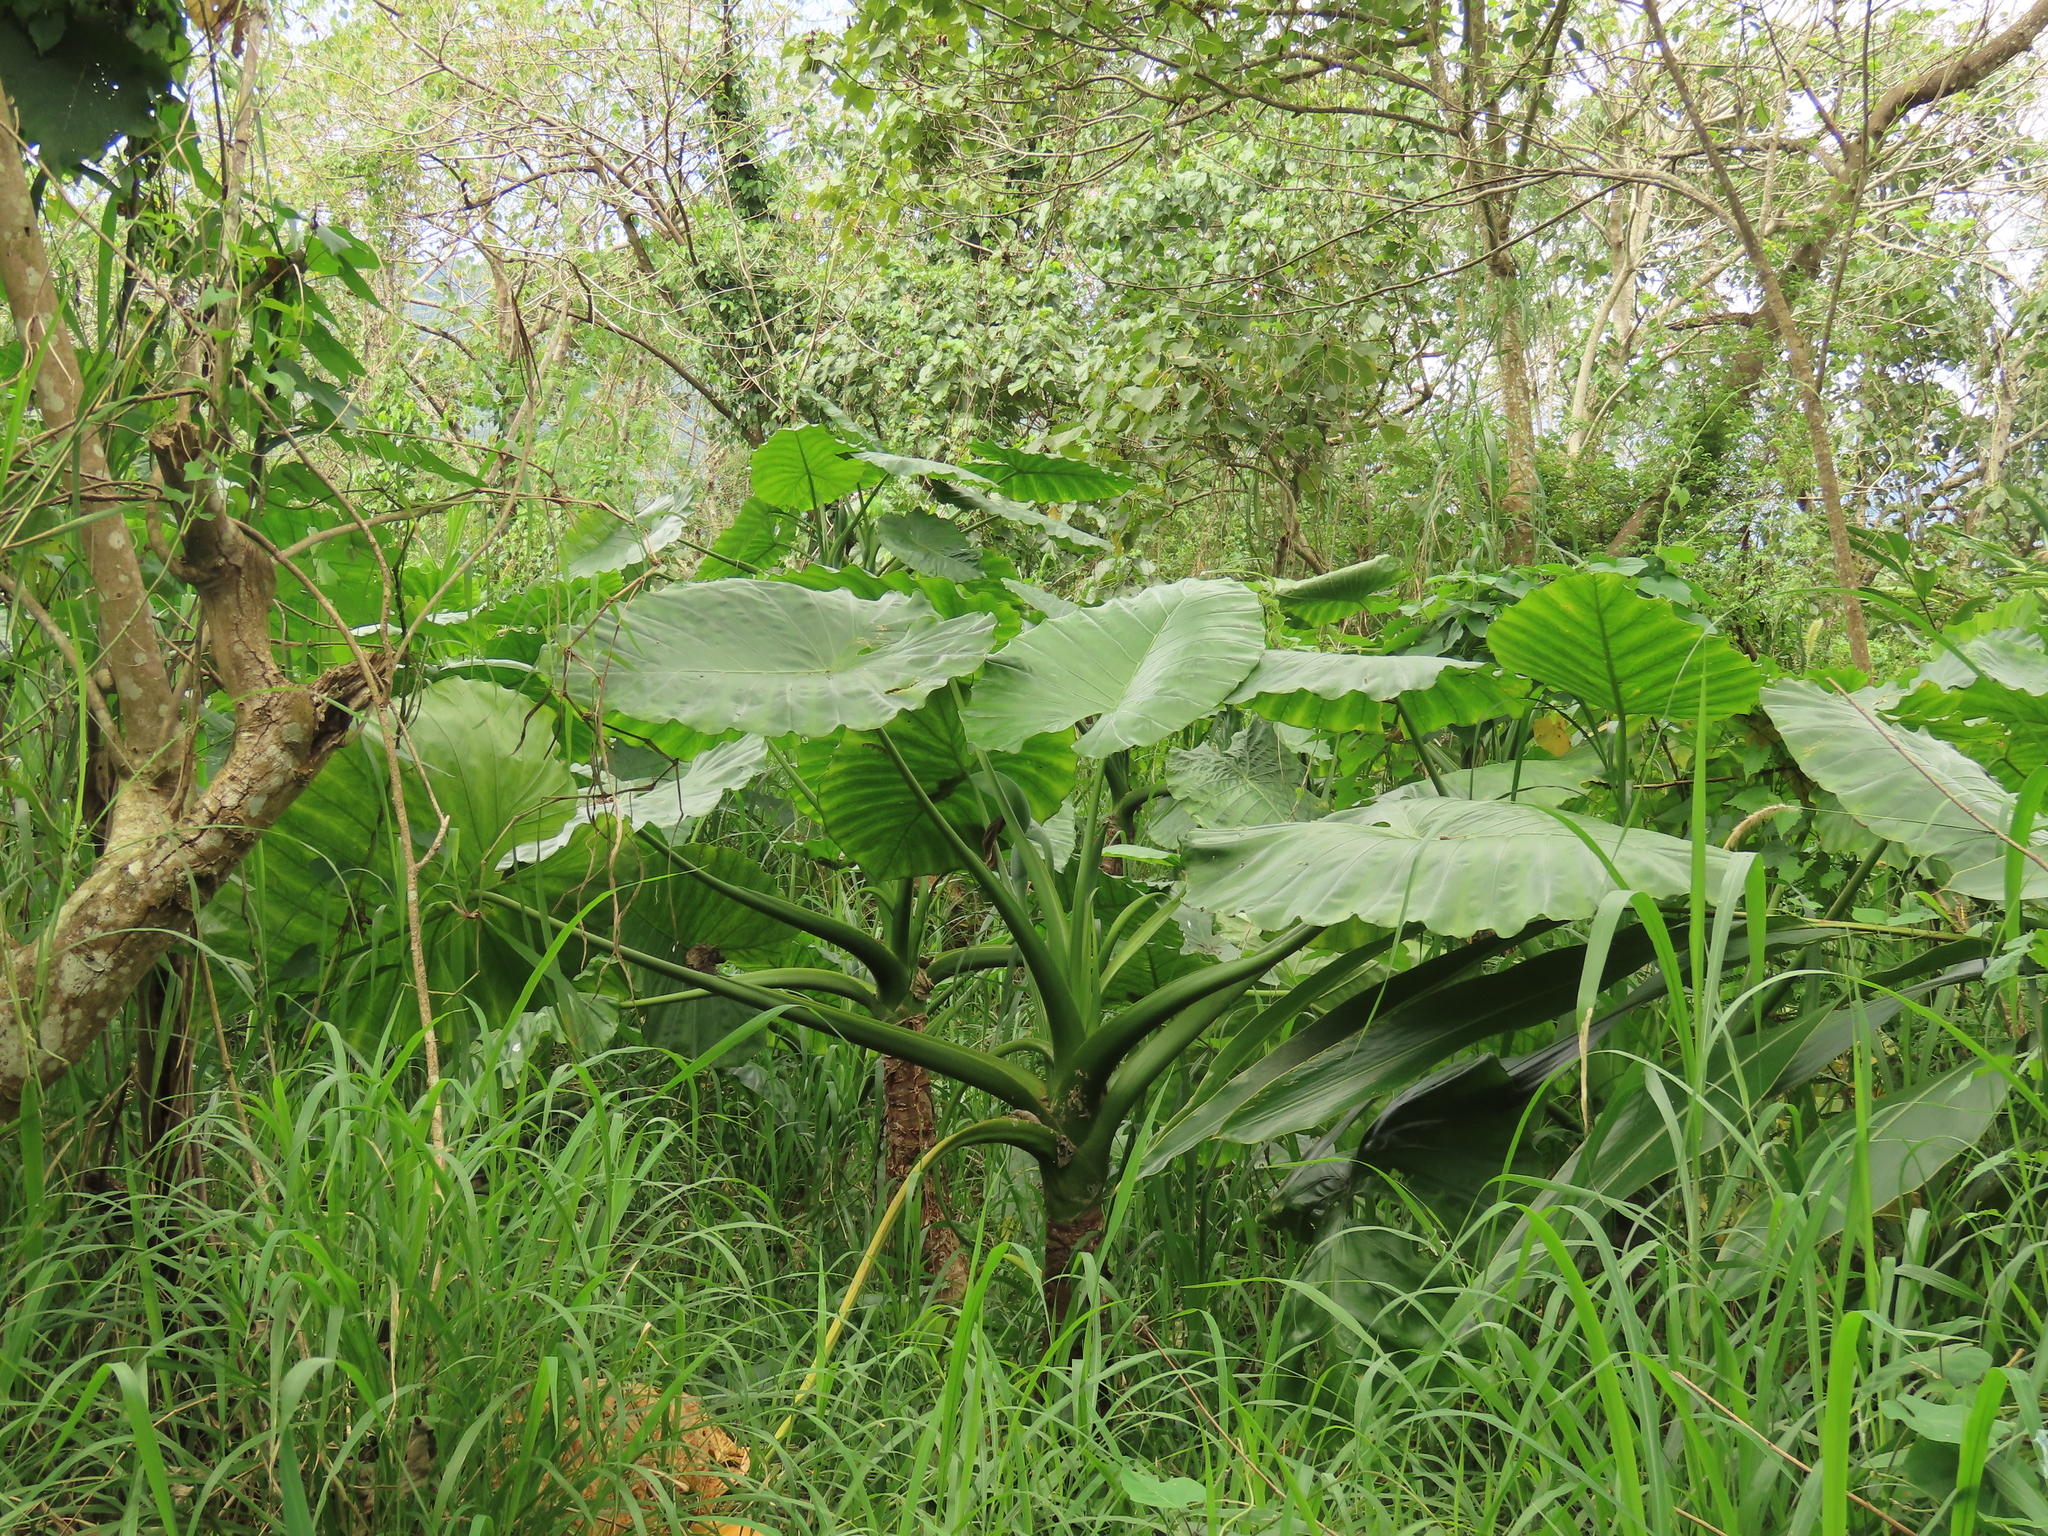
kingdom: Plantae
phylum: Tracheophyta
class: Liliopsida
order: Alismatales
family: Araceae
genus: Alocasia
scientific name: Alocasia odora
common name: Asian taro
